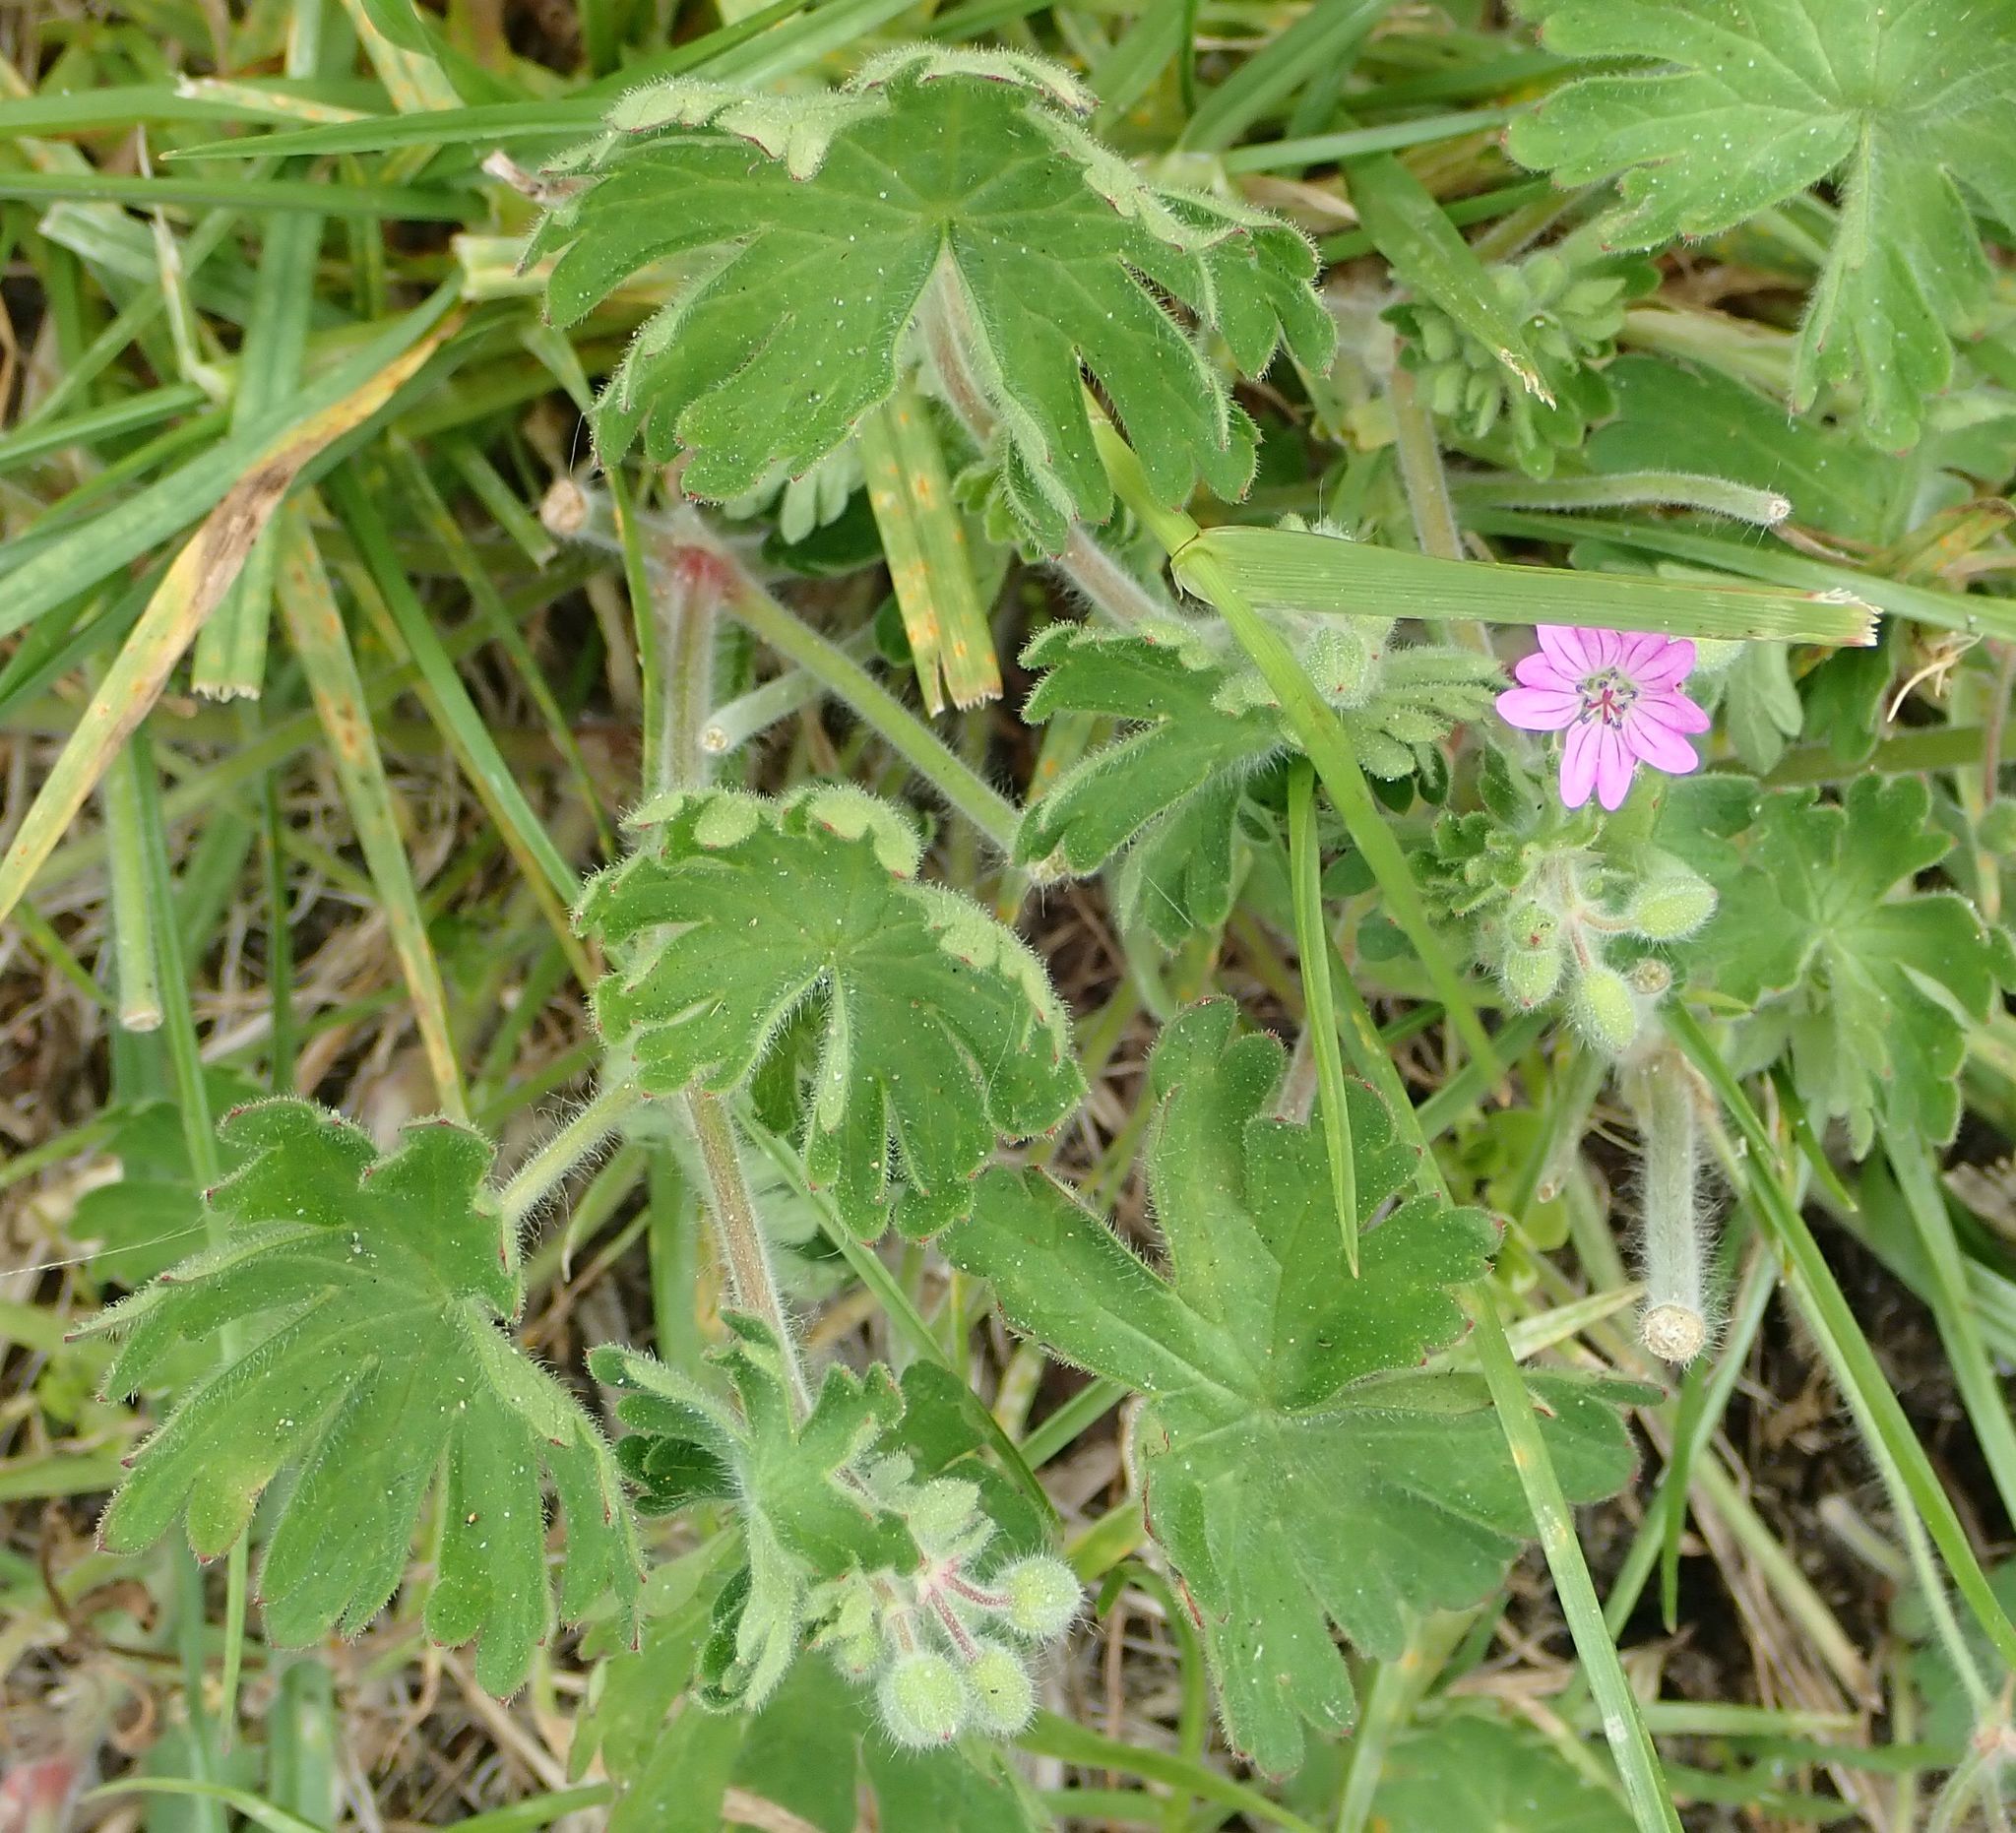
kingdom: Plantae
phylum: Tracheophyta
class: Magnoliopsida
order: Geraniales
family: Geraniaceae
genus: Geranium
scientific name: Geranium molle
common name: Dove's-foot crane's-bill
